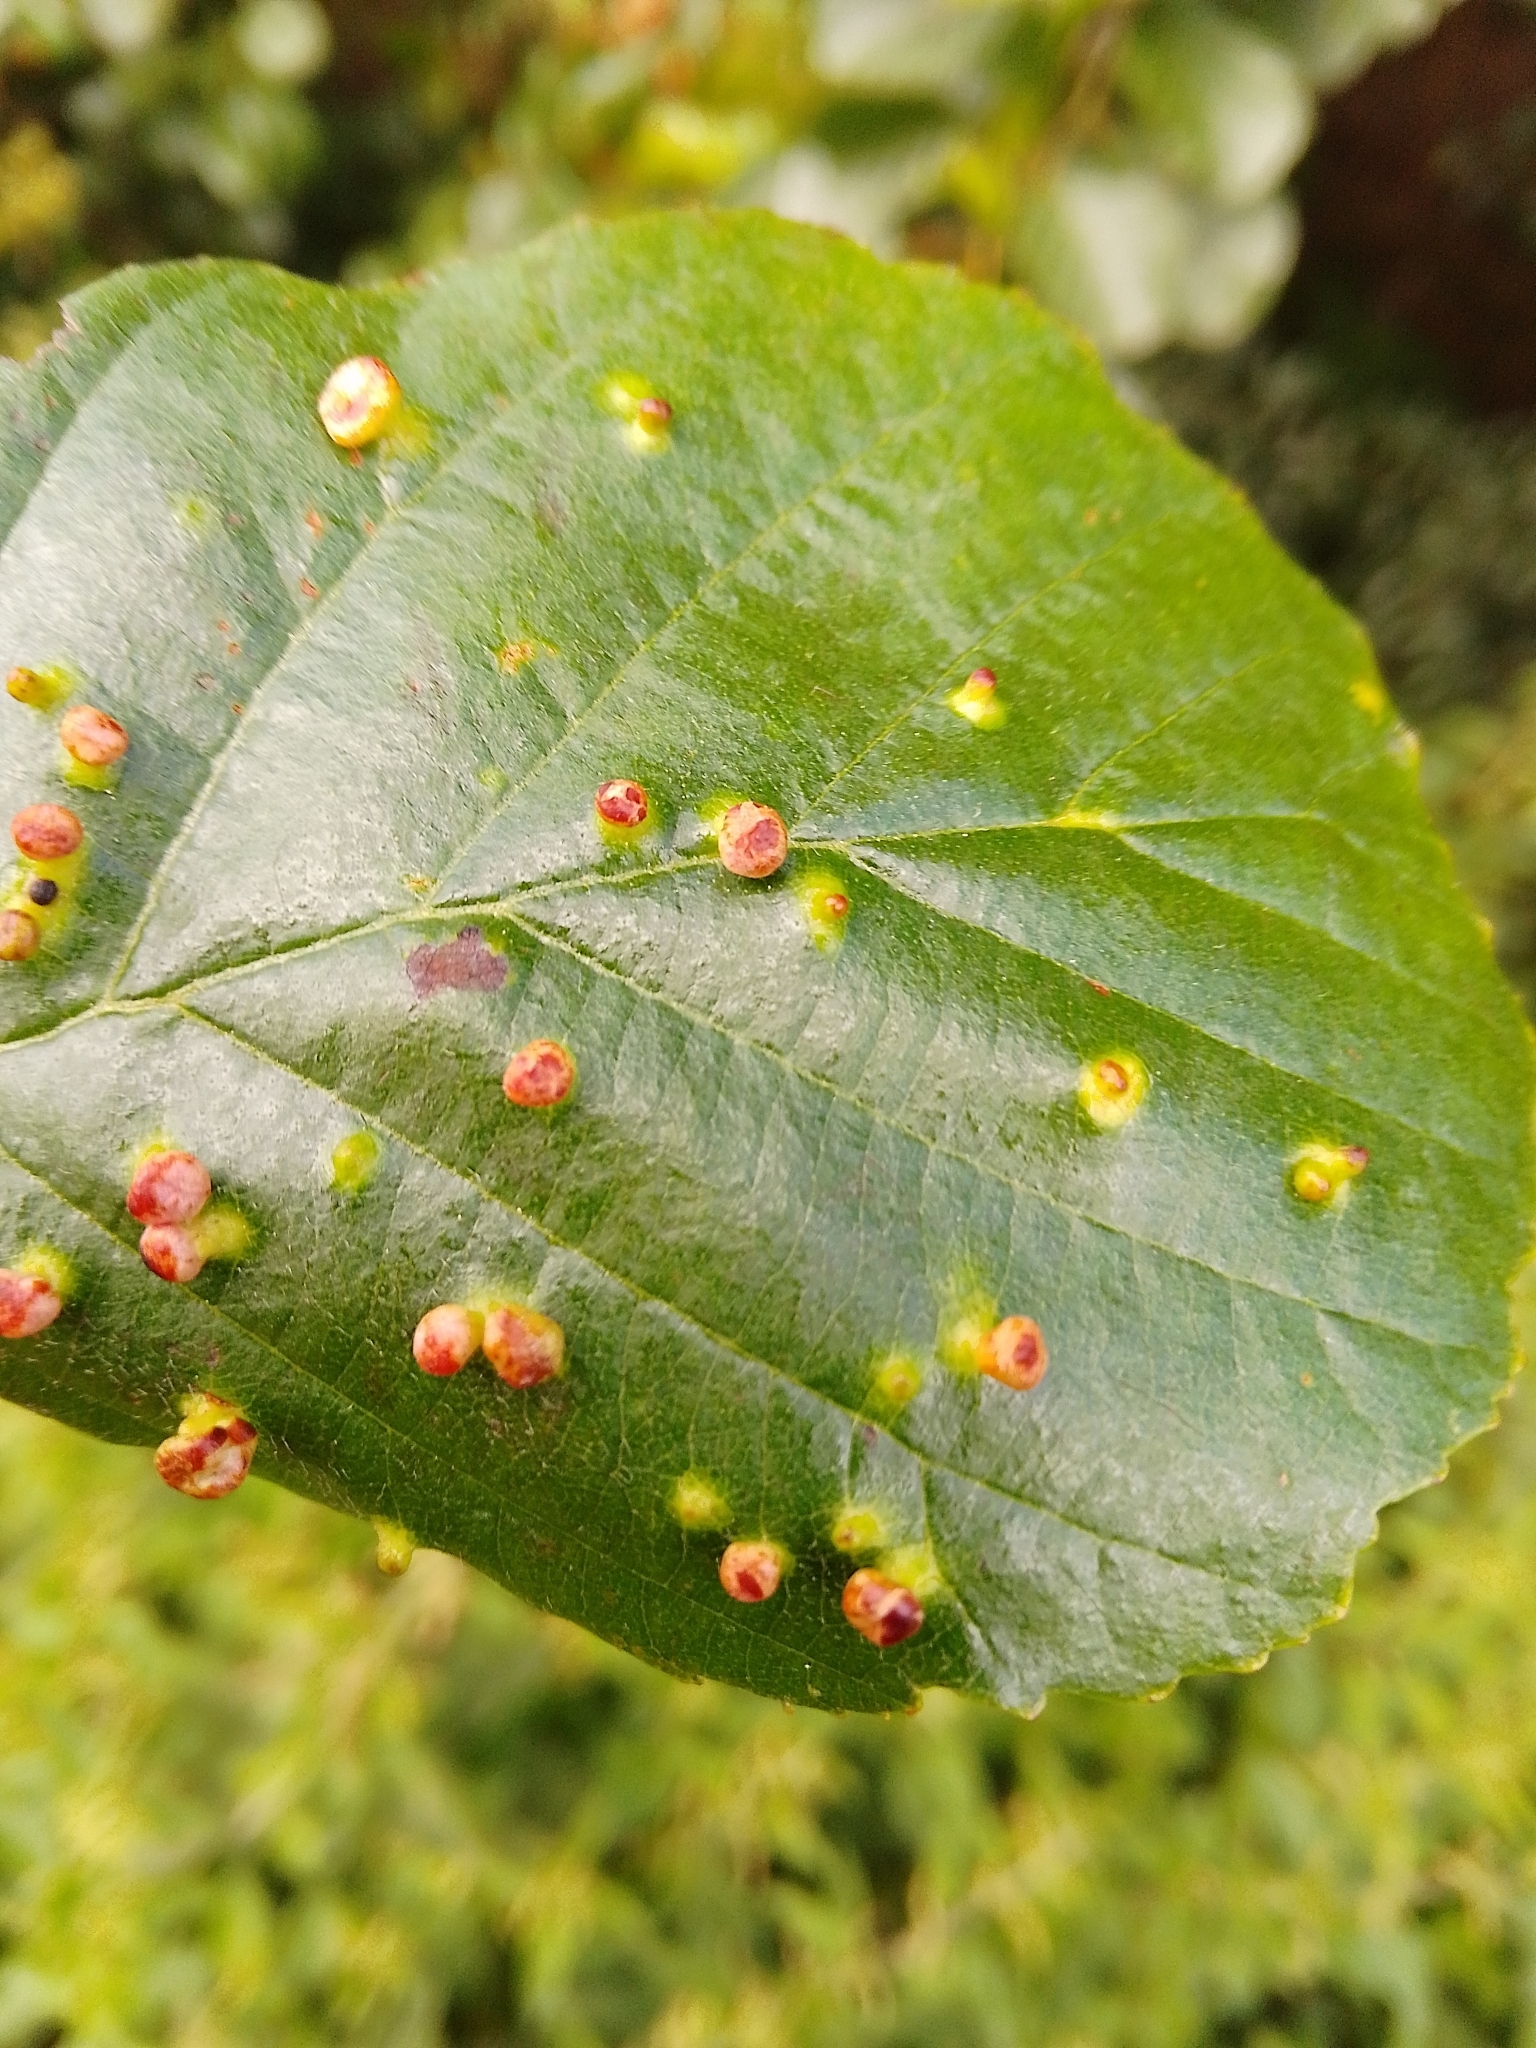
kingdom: Animalia
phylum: Arthropoda
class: Arachnida
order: Trombidiformes
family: Eriophyidae
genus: Eriophyes
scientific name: Eriophyes laevis
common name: Alder leaf gall mite
